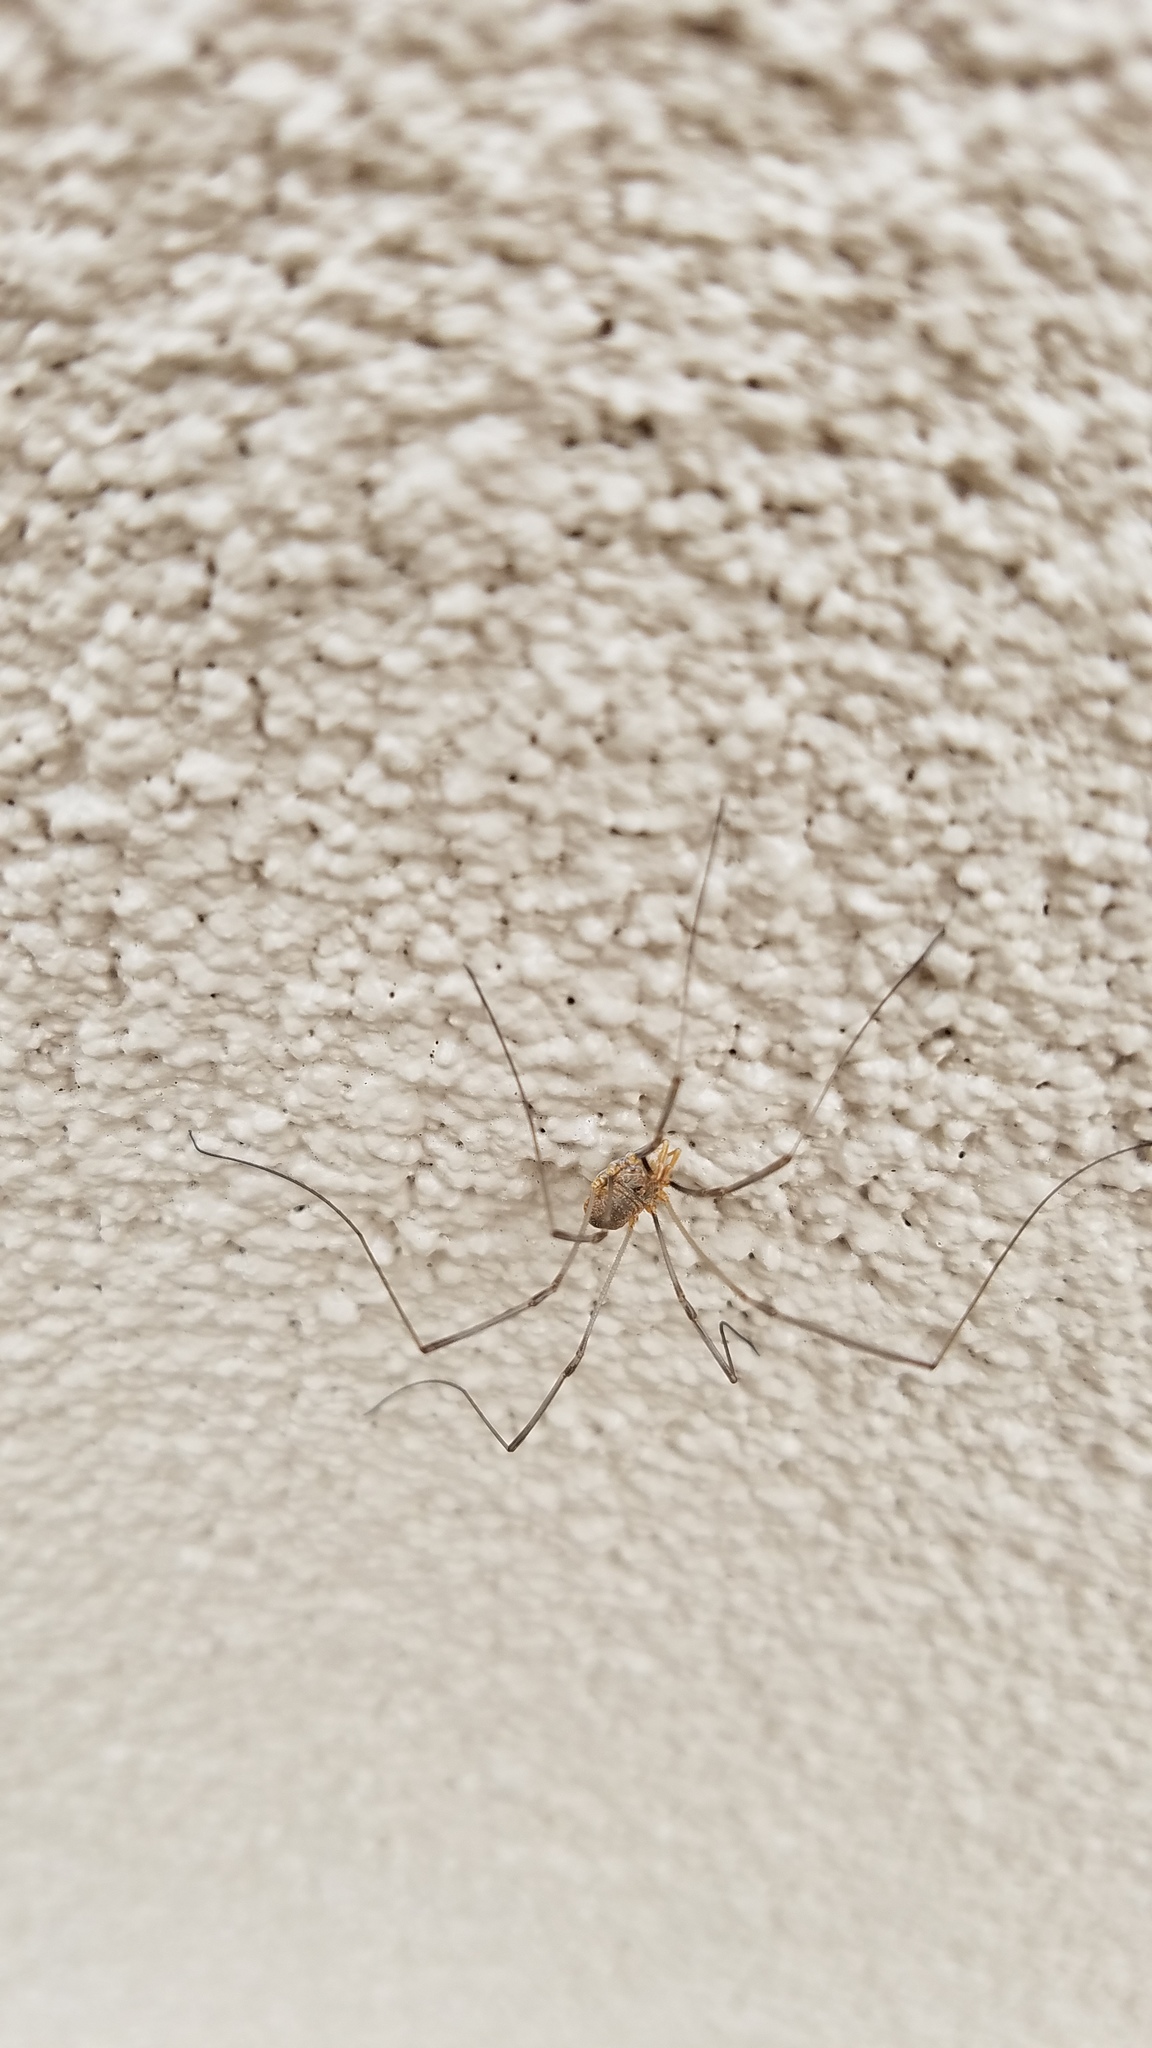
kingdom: Animalia
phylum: Arthropoda
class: Arachnida
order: Opiliones
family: Phalangiidae
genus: Phalangium
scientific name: Phalangium opilio
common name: Daddy longleg
